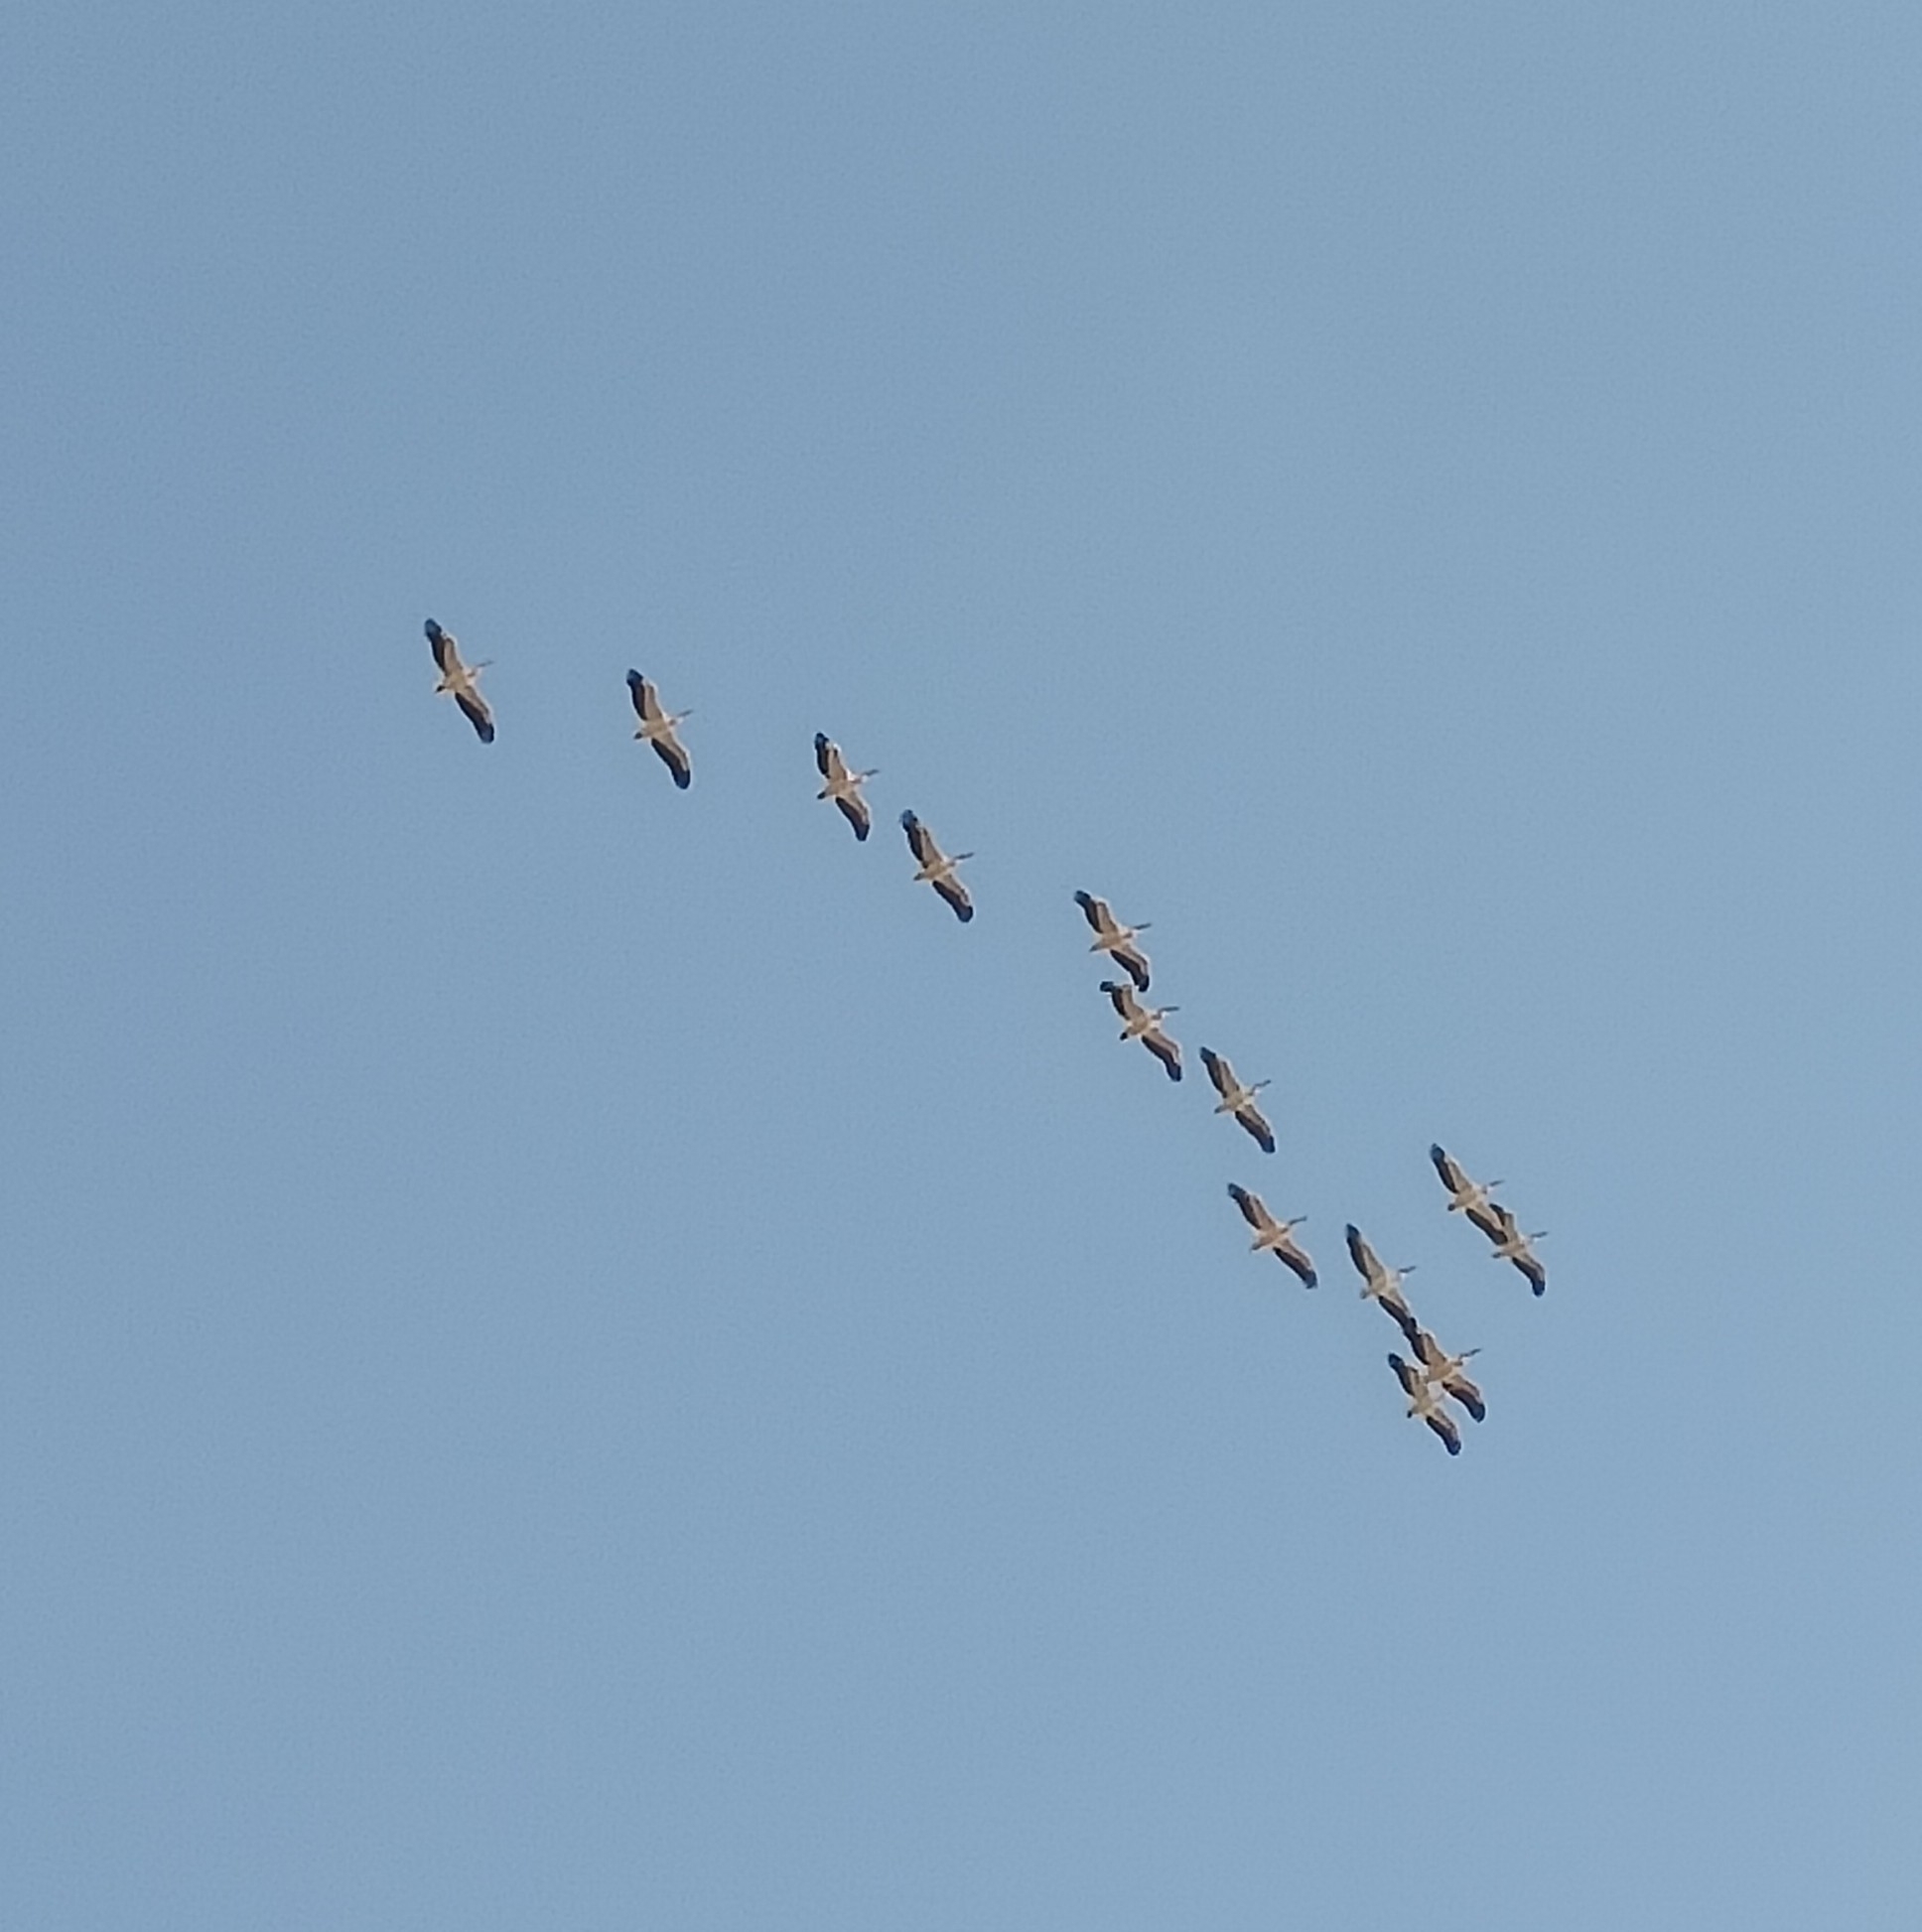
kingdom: Animalia
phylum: Chordata
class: Aves
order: Pelecaniformes
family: Pelecanidae
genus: Pelecanus
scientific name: Pelecanus onocrotalus
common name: Great white pelican
